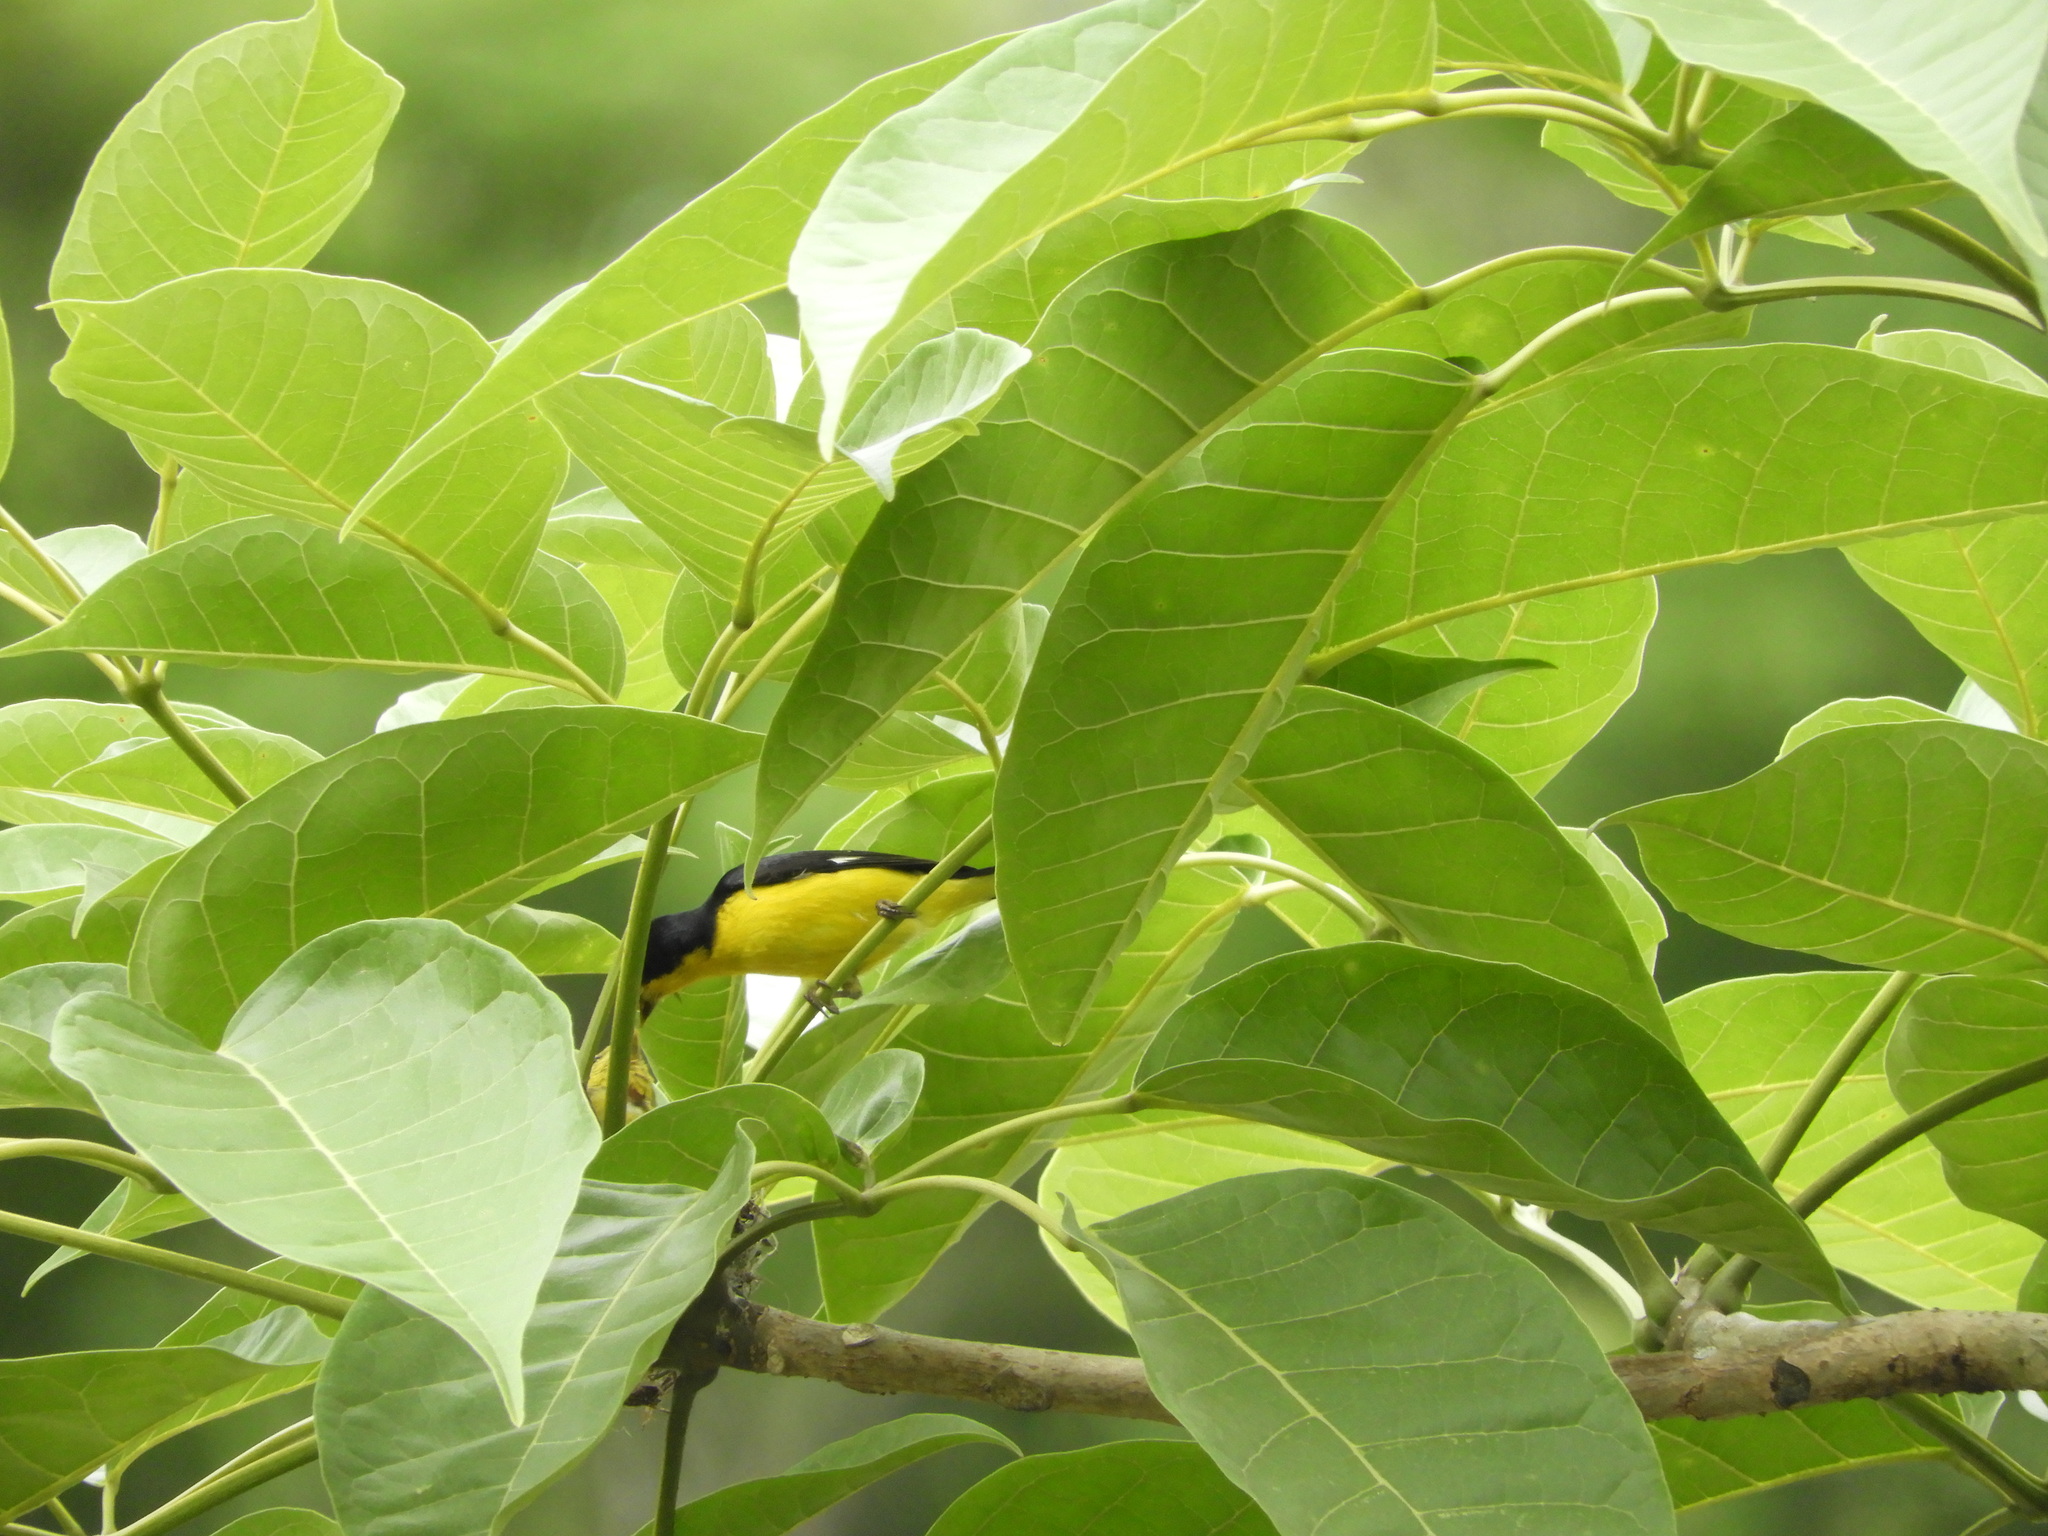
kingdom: Animalia
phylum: Chordata
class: Aves
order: Passeriformes
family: Fringillidae
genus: Spinus
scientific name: Spinus psaltria
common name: Lesser goldfinch
